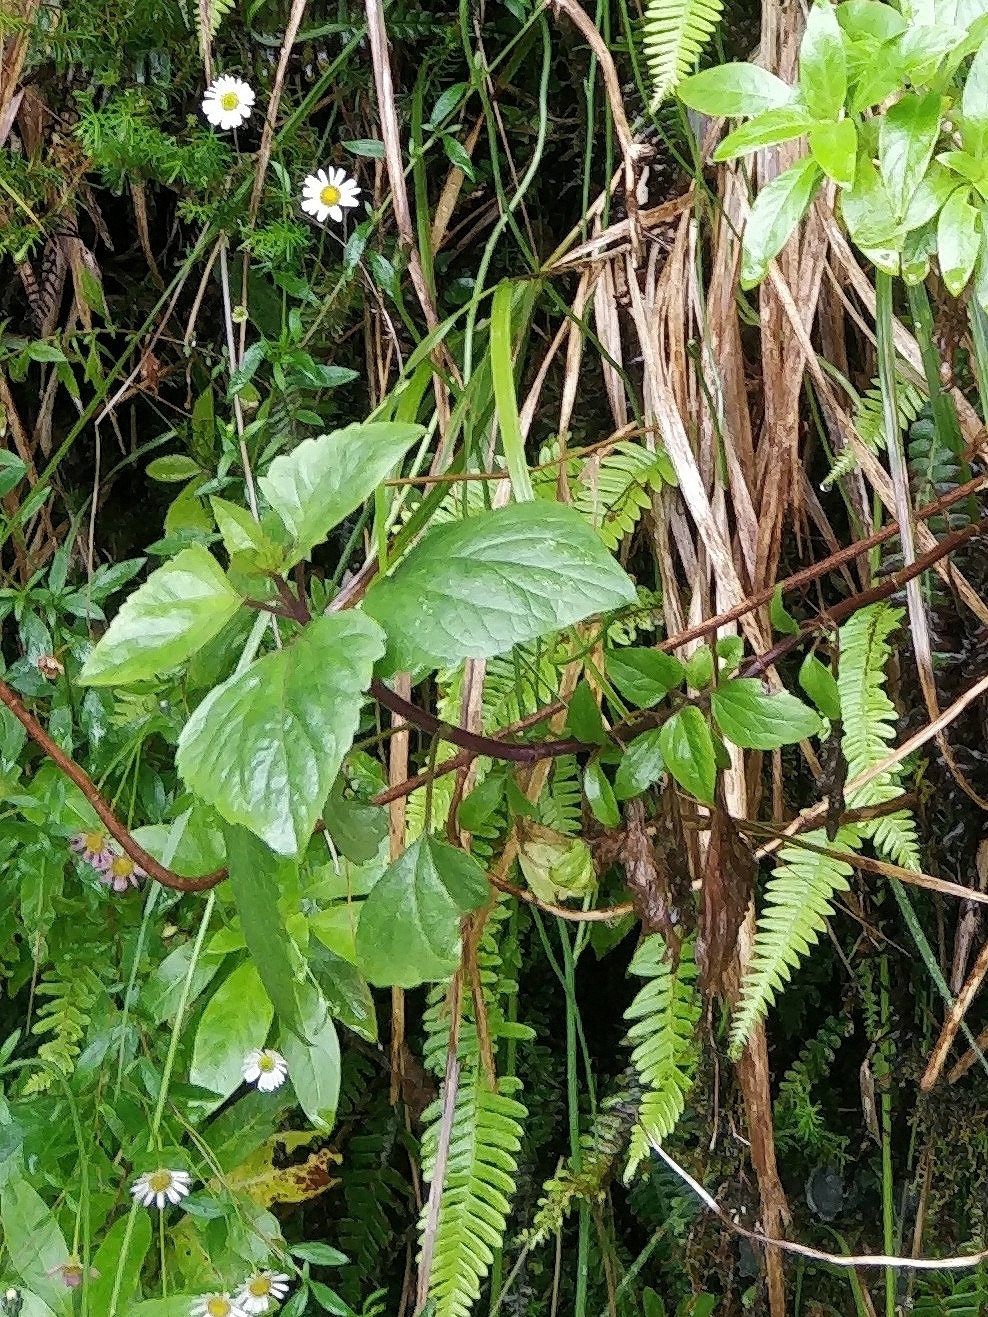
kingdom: Plantae
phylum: Tracheophyta
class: Magnoliopsida
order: Asterales
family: Asteraceae
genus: Ageratina
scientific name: Ageratina adenophora
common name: Sticky snakeroot
